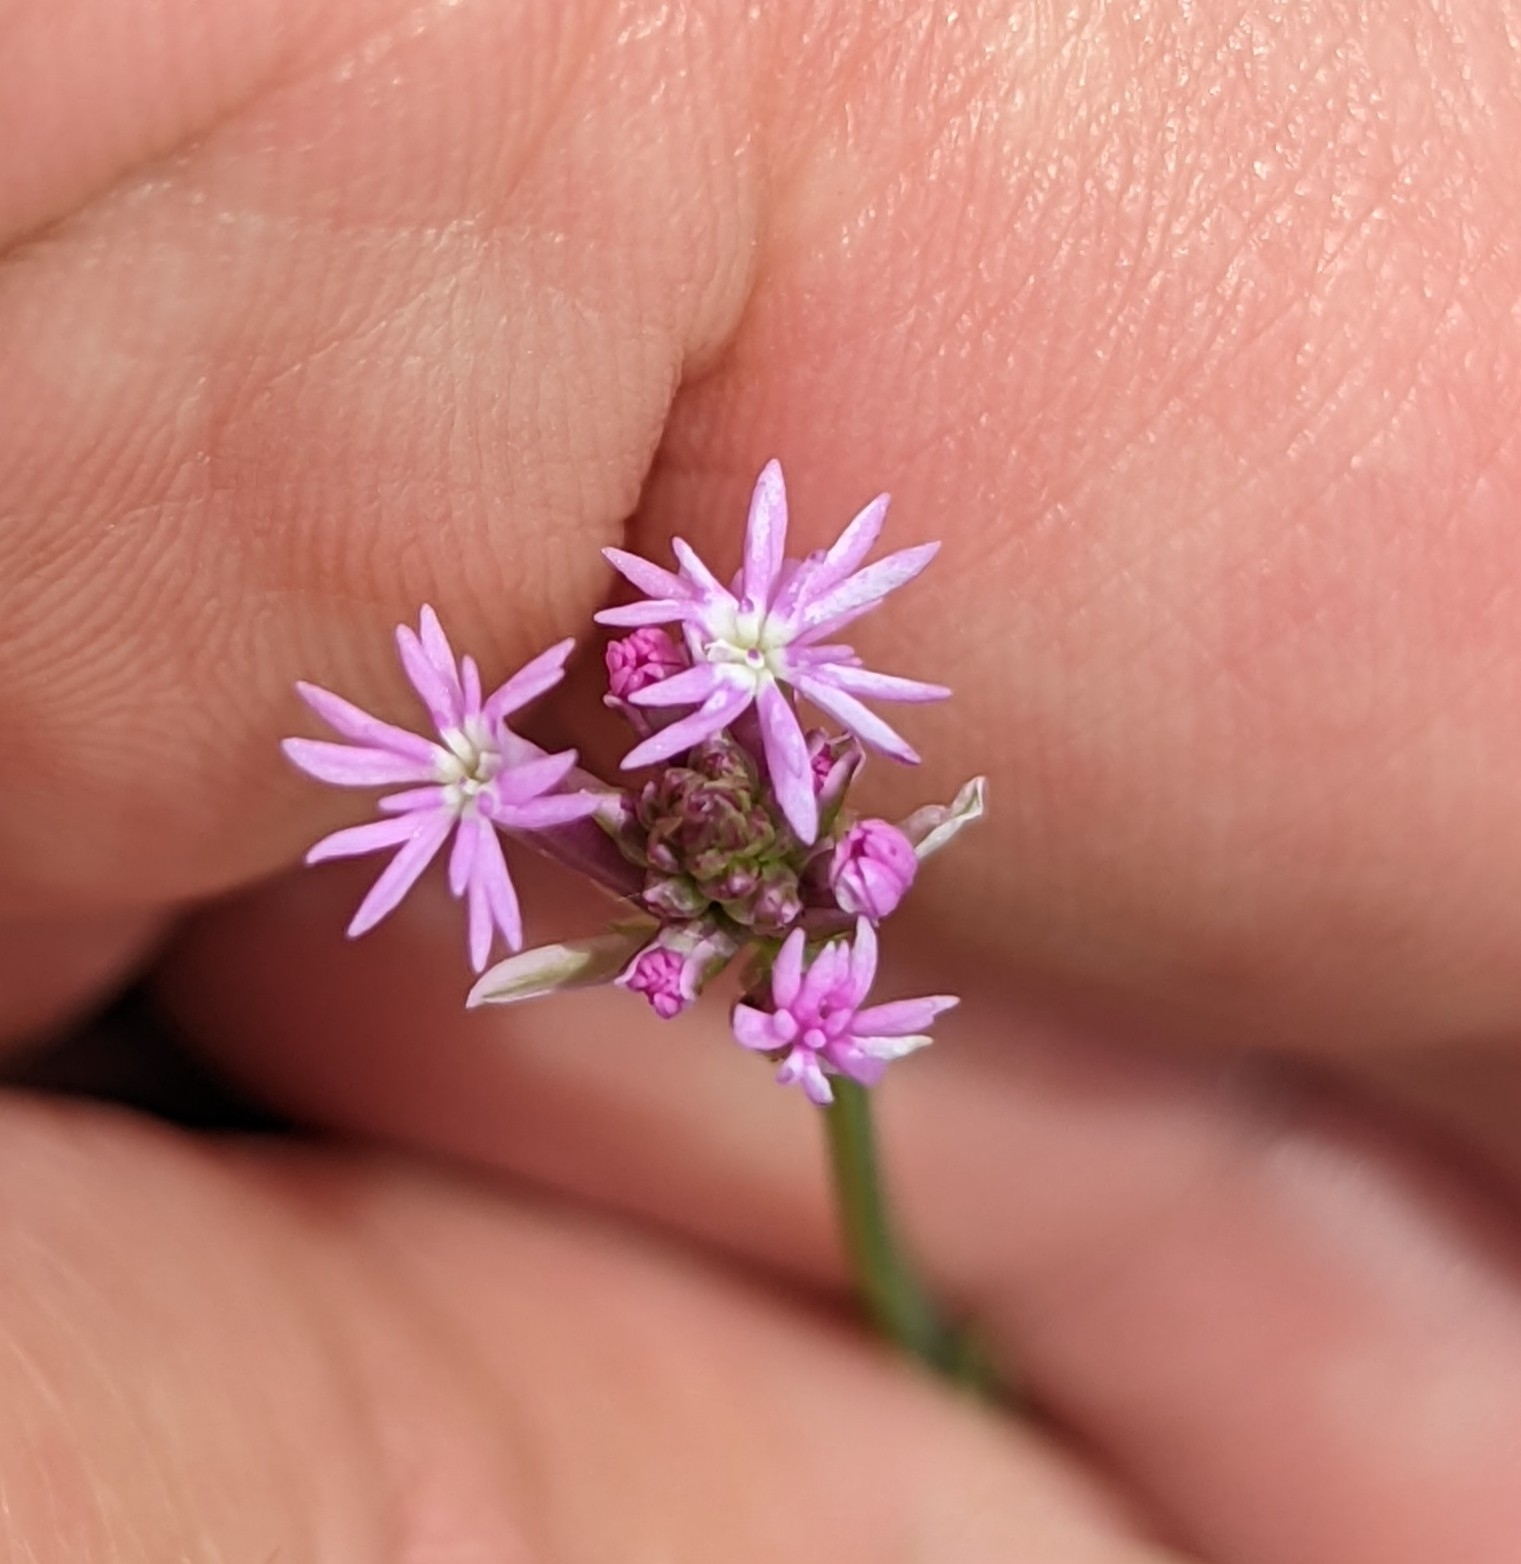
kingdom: Plantae
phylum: Tracheophyta
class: Magnoliopsida
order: Fabales
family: Polygalaceae
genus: Polygala
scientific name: Polygala incarnata
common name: Pink milkwort
